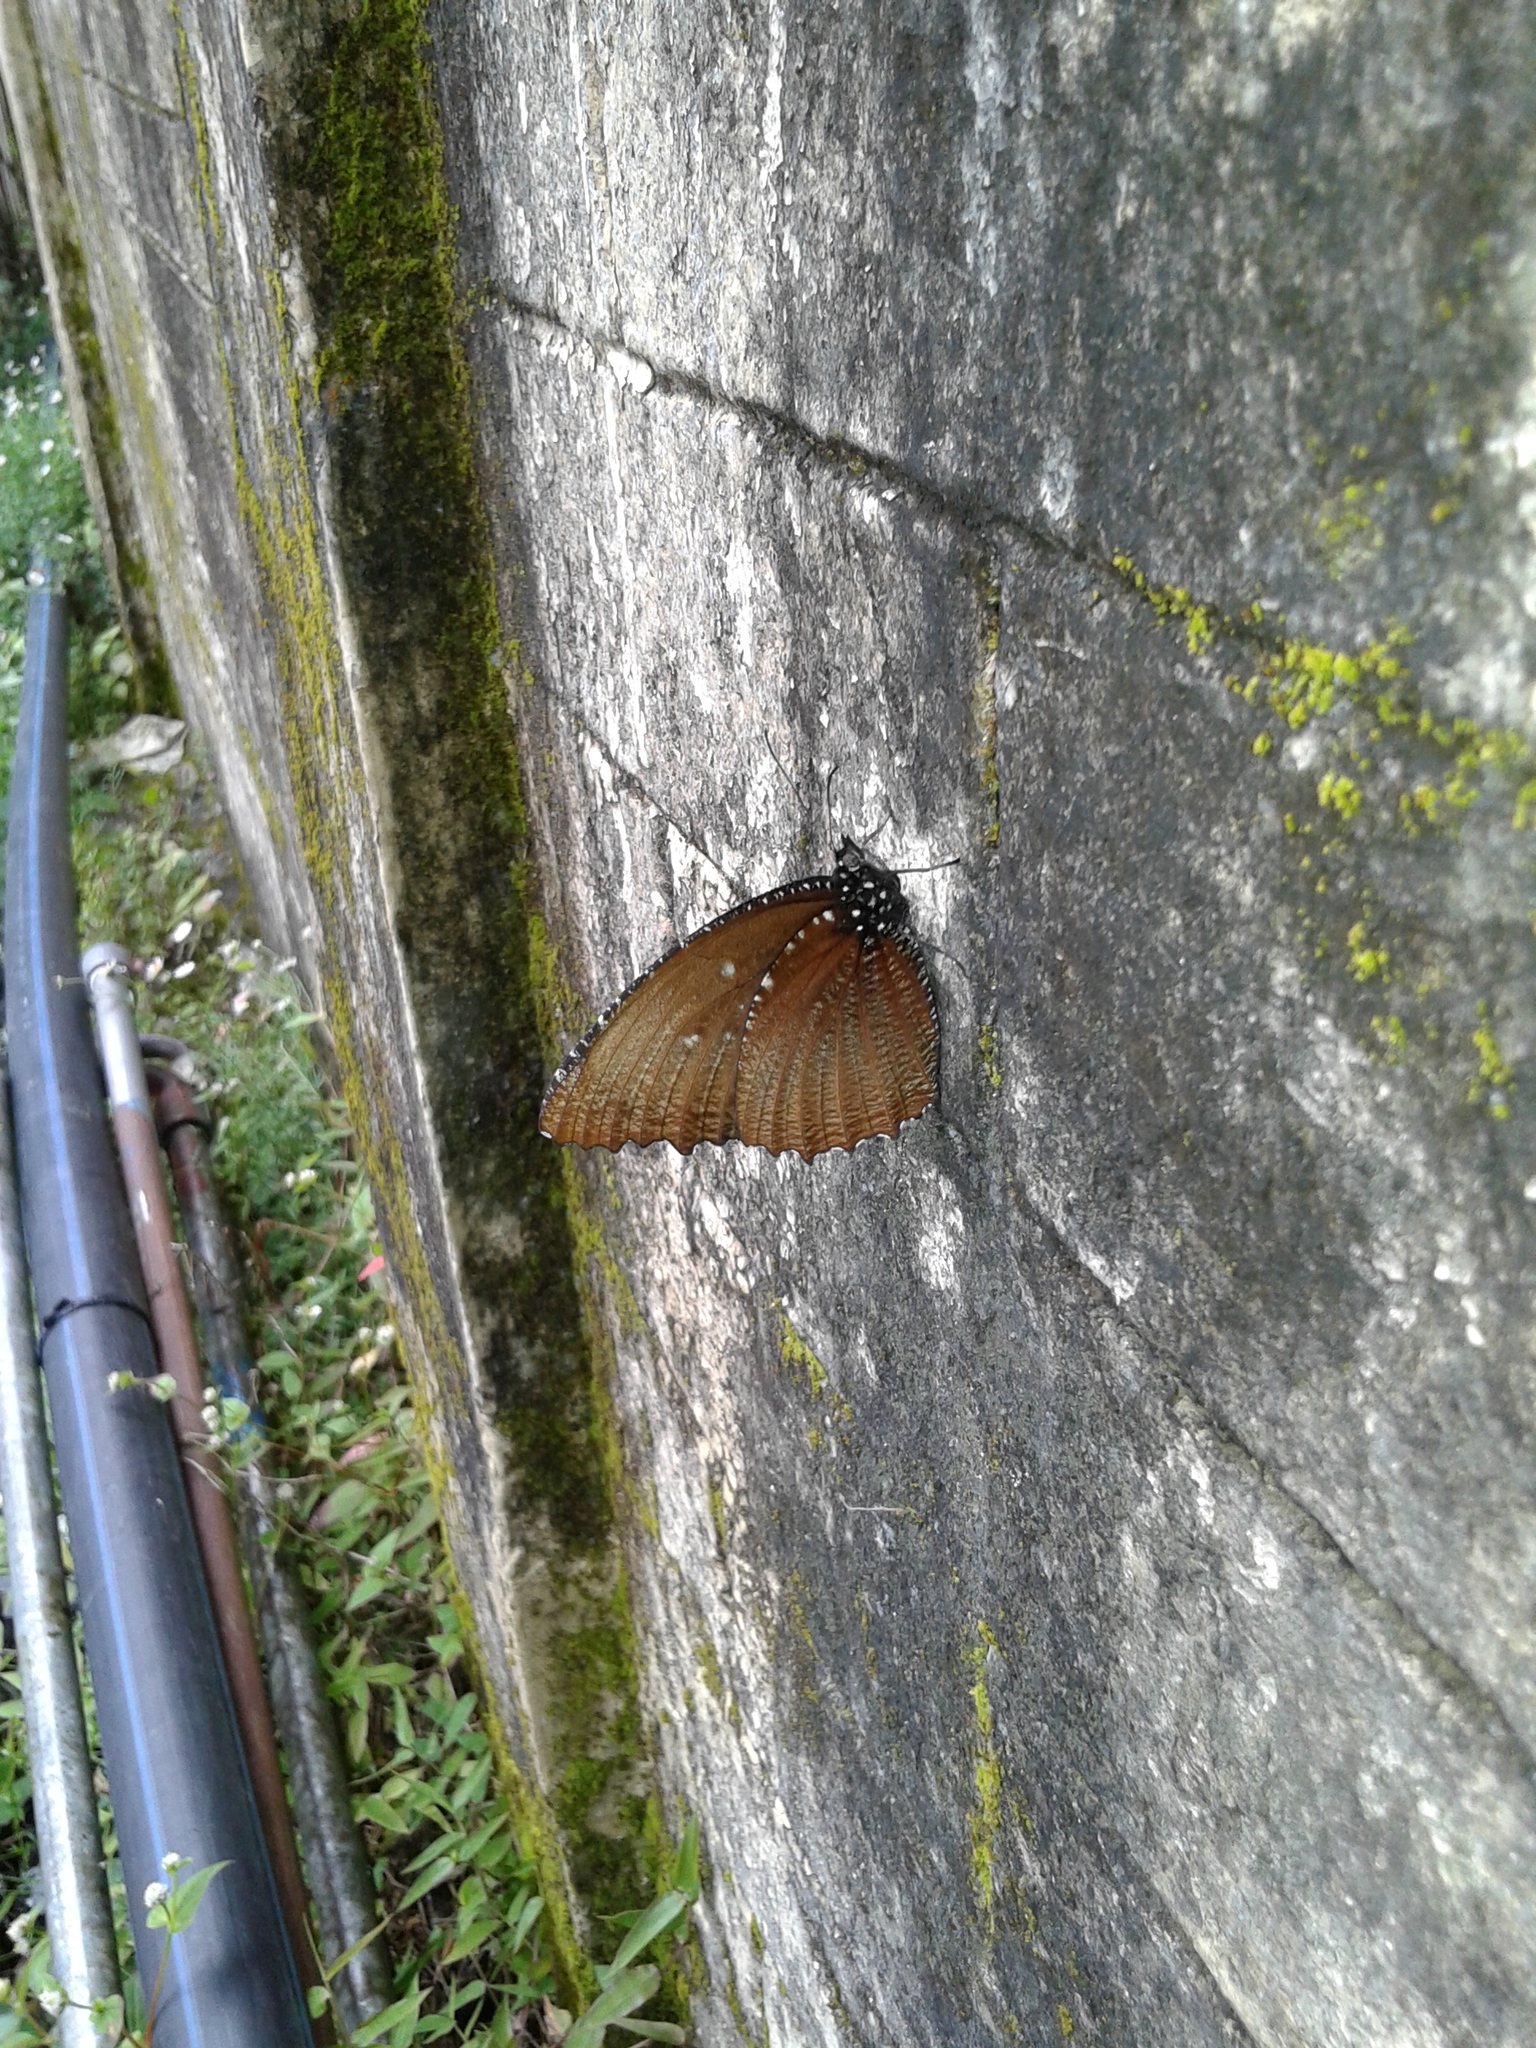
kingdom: Animalia
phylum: Arthropoda
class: Insecta
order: Lepidoptera
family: Nymphalidae
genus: Elymnias
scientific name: Elymnias malelas
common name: Spotted palmfly
